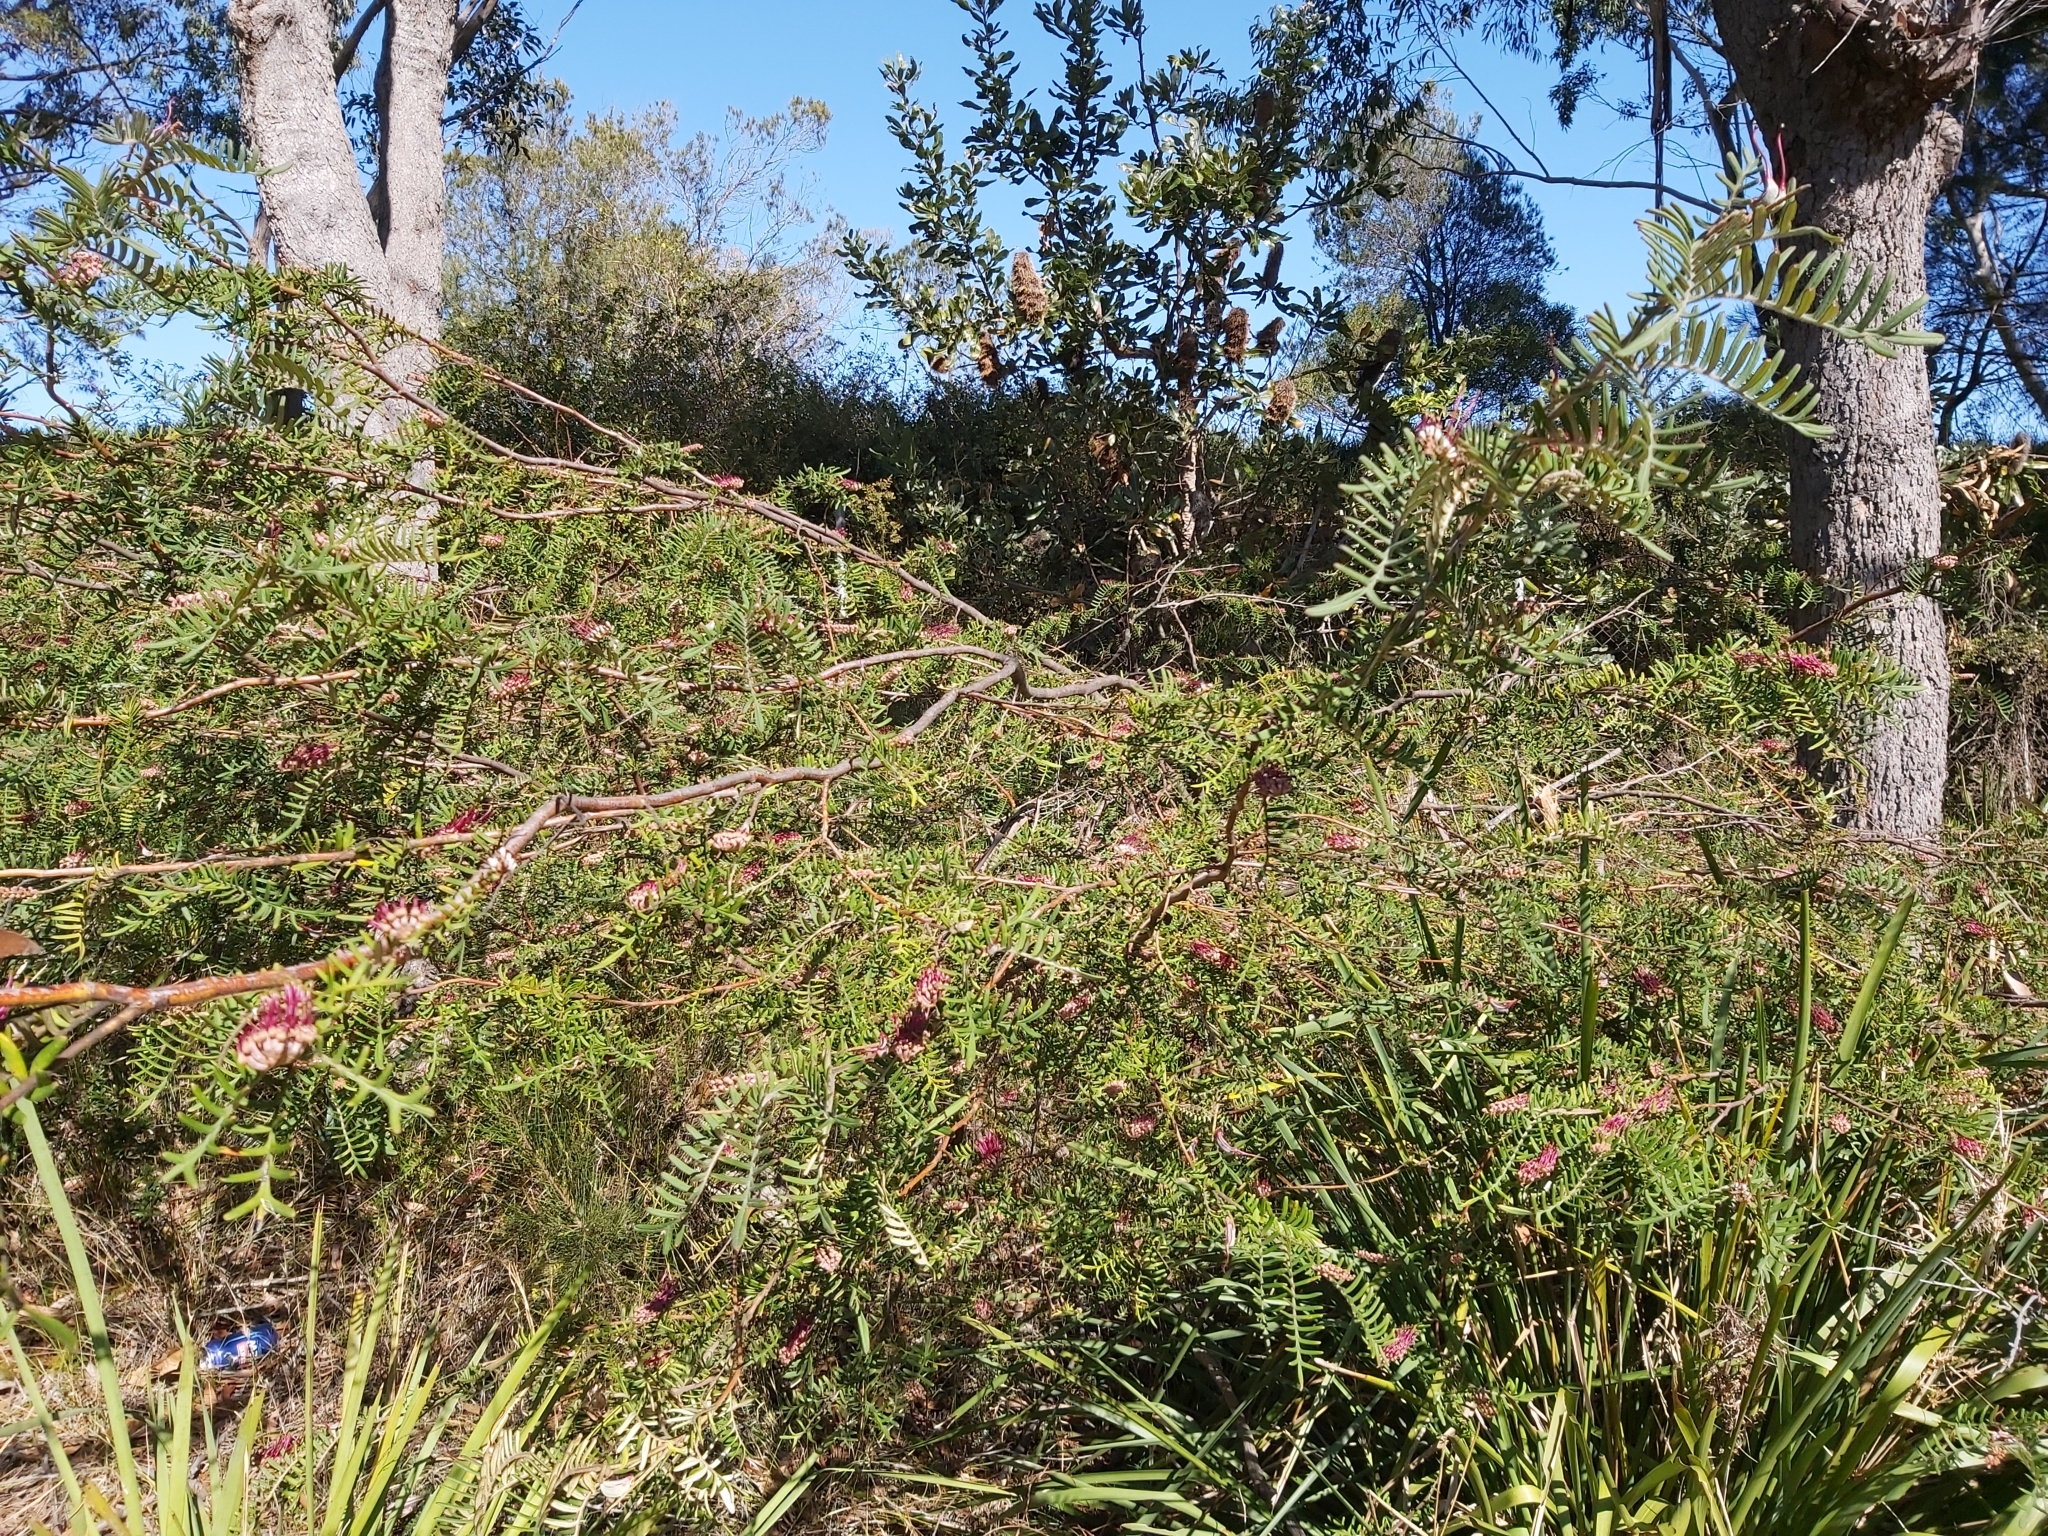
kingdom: Plantae
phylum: Tracheophyta
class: Magnoliopsida
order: Proteales
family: Proteaceae
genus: Grevillea
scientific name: Grevillea caleyi
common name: Caley's grevillea
